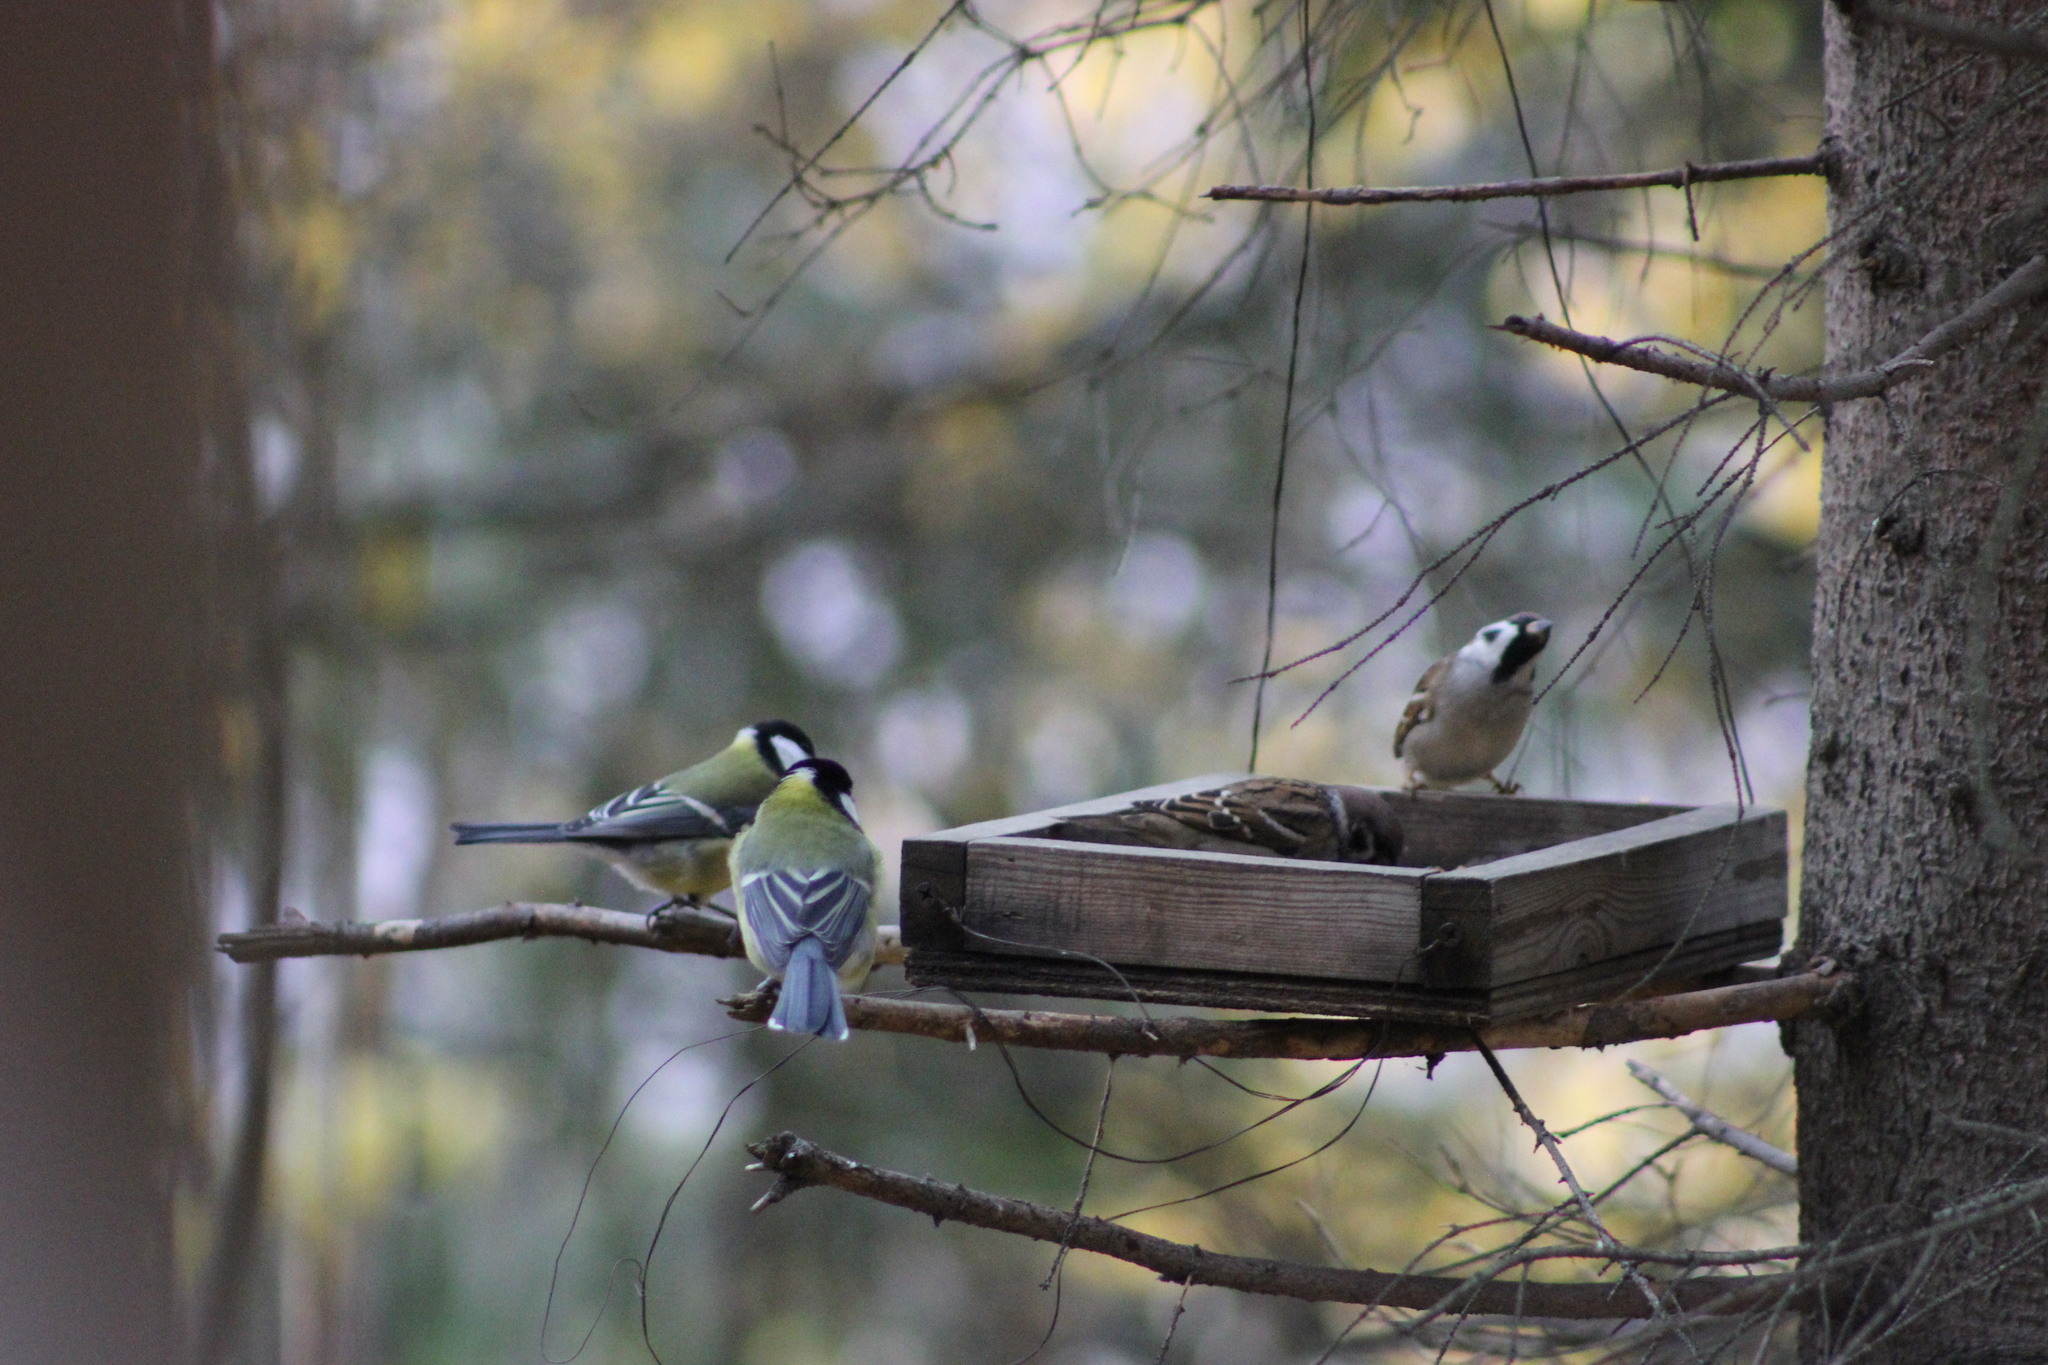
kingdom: Animalia
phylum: Chordata
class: Aves
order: Passeriformes
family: Paridae
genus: Parus
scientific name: Parus major
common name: Great tit
